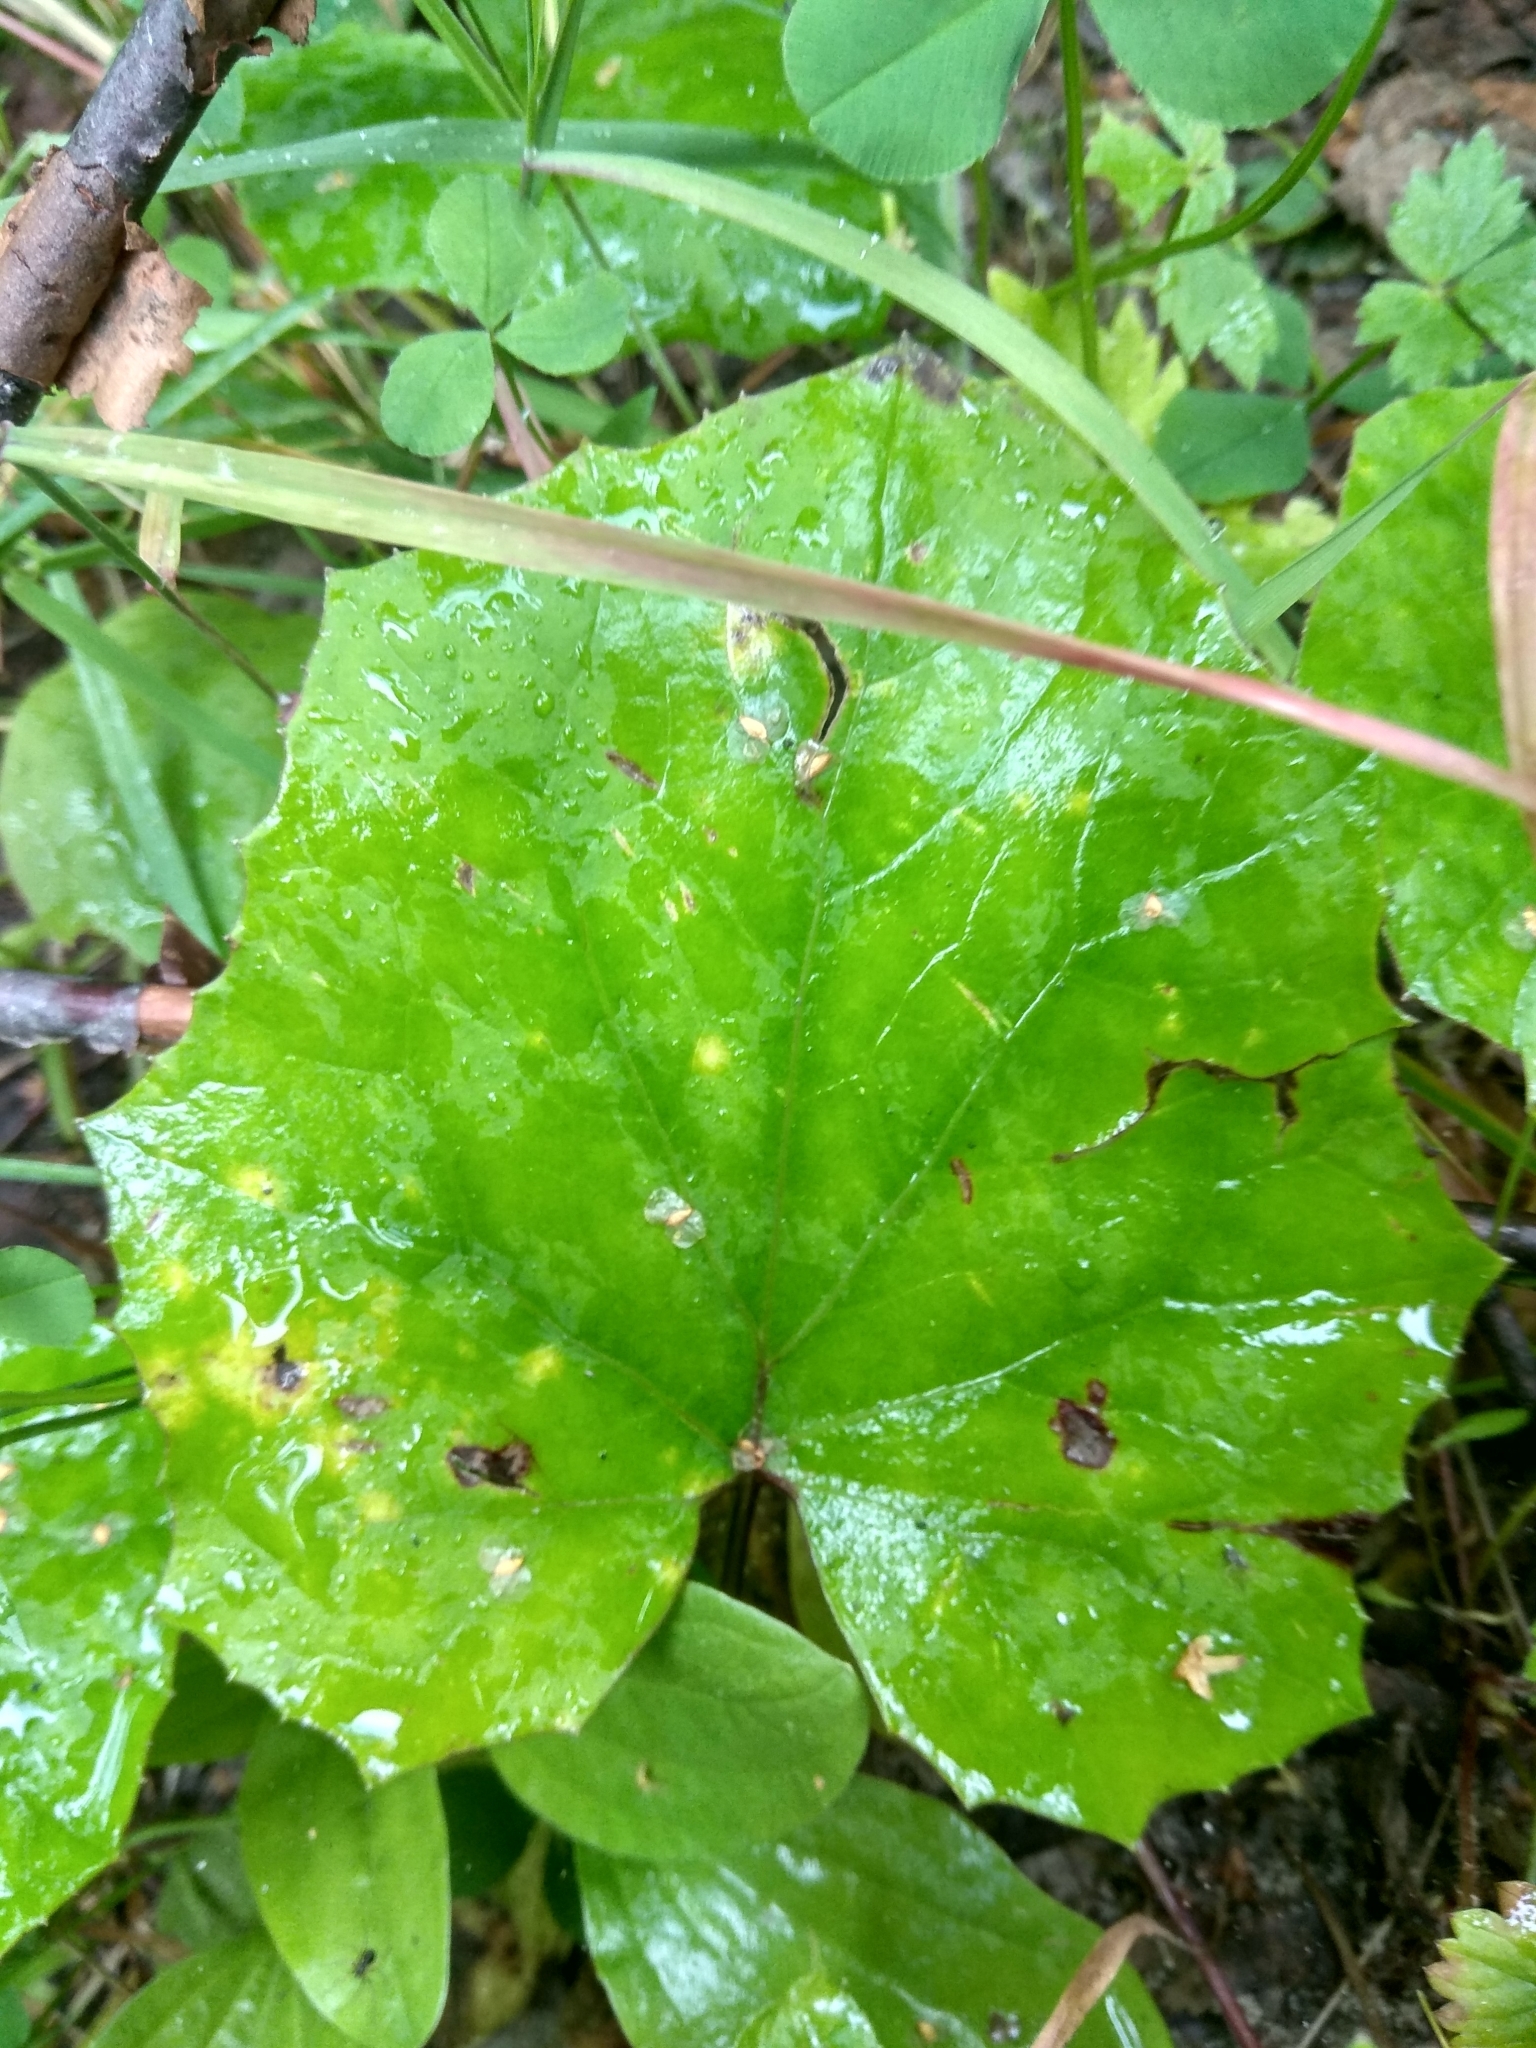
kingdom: Plantae
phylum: Tracheophyta
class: Magnoliopsida
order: Asterales
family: Asteraceae
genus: Tussilago
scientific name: Tussilago farfara
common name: Coltsfoot
